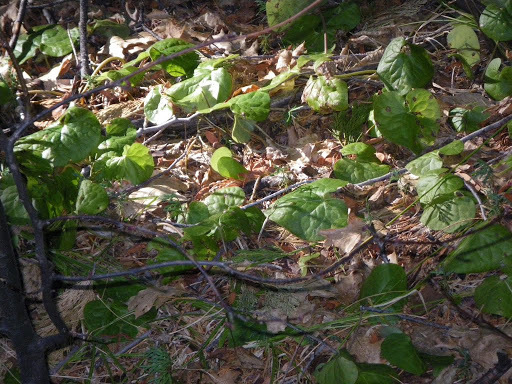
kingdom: Plantae
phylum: Tracheophyta
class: Magnoliopsida
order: Piperales
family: Aristolochiaceae
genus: Asarum
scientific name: Asarum lemmonii
